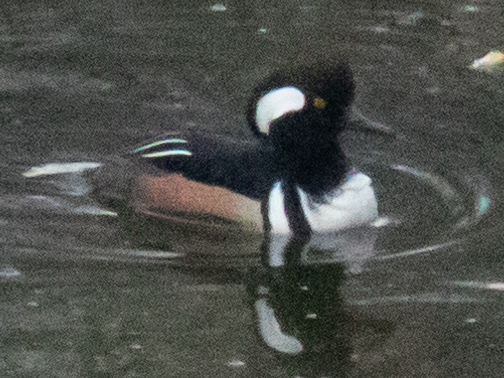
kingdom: Animalia
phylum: Chordata
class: Aves
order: Anseriformes
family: Anatidae
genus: Lophodytes
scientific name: Lophodytes cucullatus
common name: Hooded merganser
